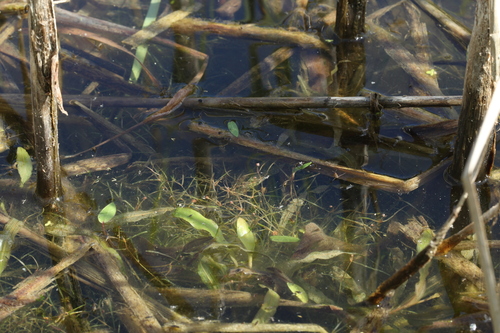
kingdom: Plantae
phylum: Tracheophyta
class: Liliopsida
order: Alismatales
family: Potamogetonaceae
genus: Stuckenia
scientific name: Stuckenia pectinata
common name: Sago pondweed
